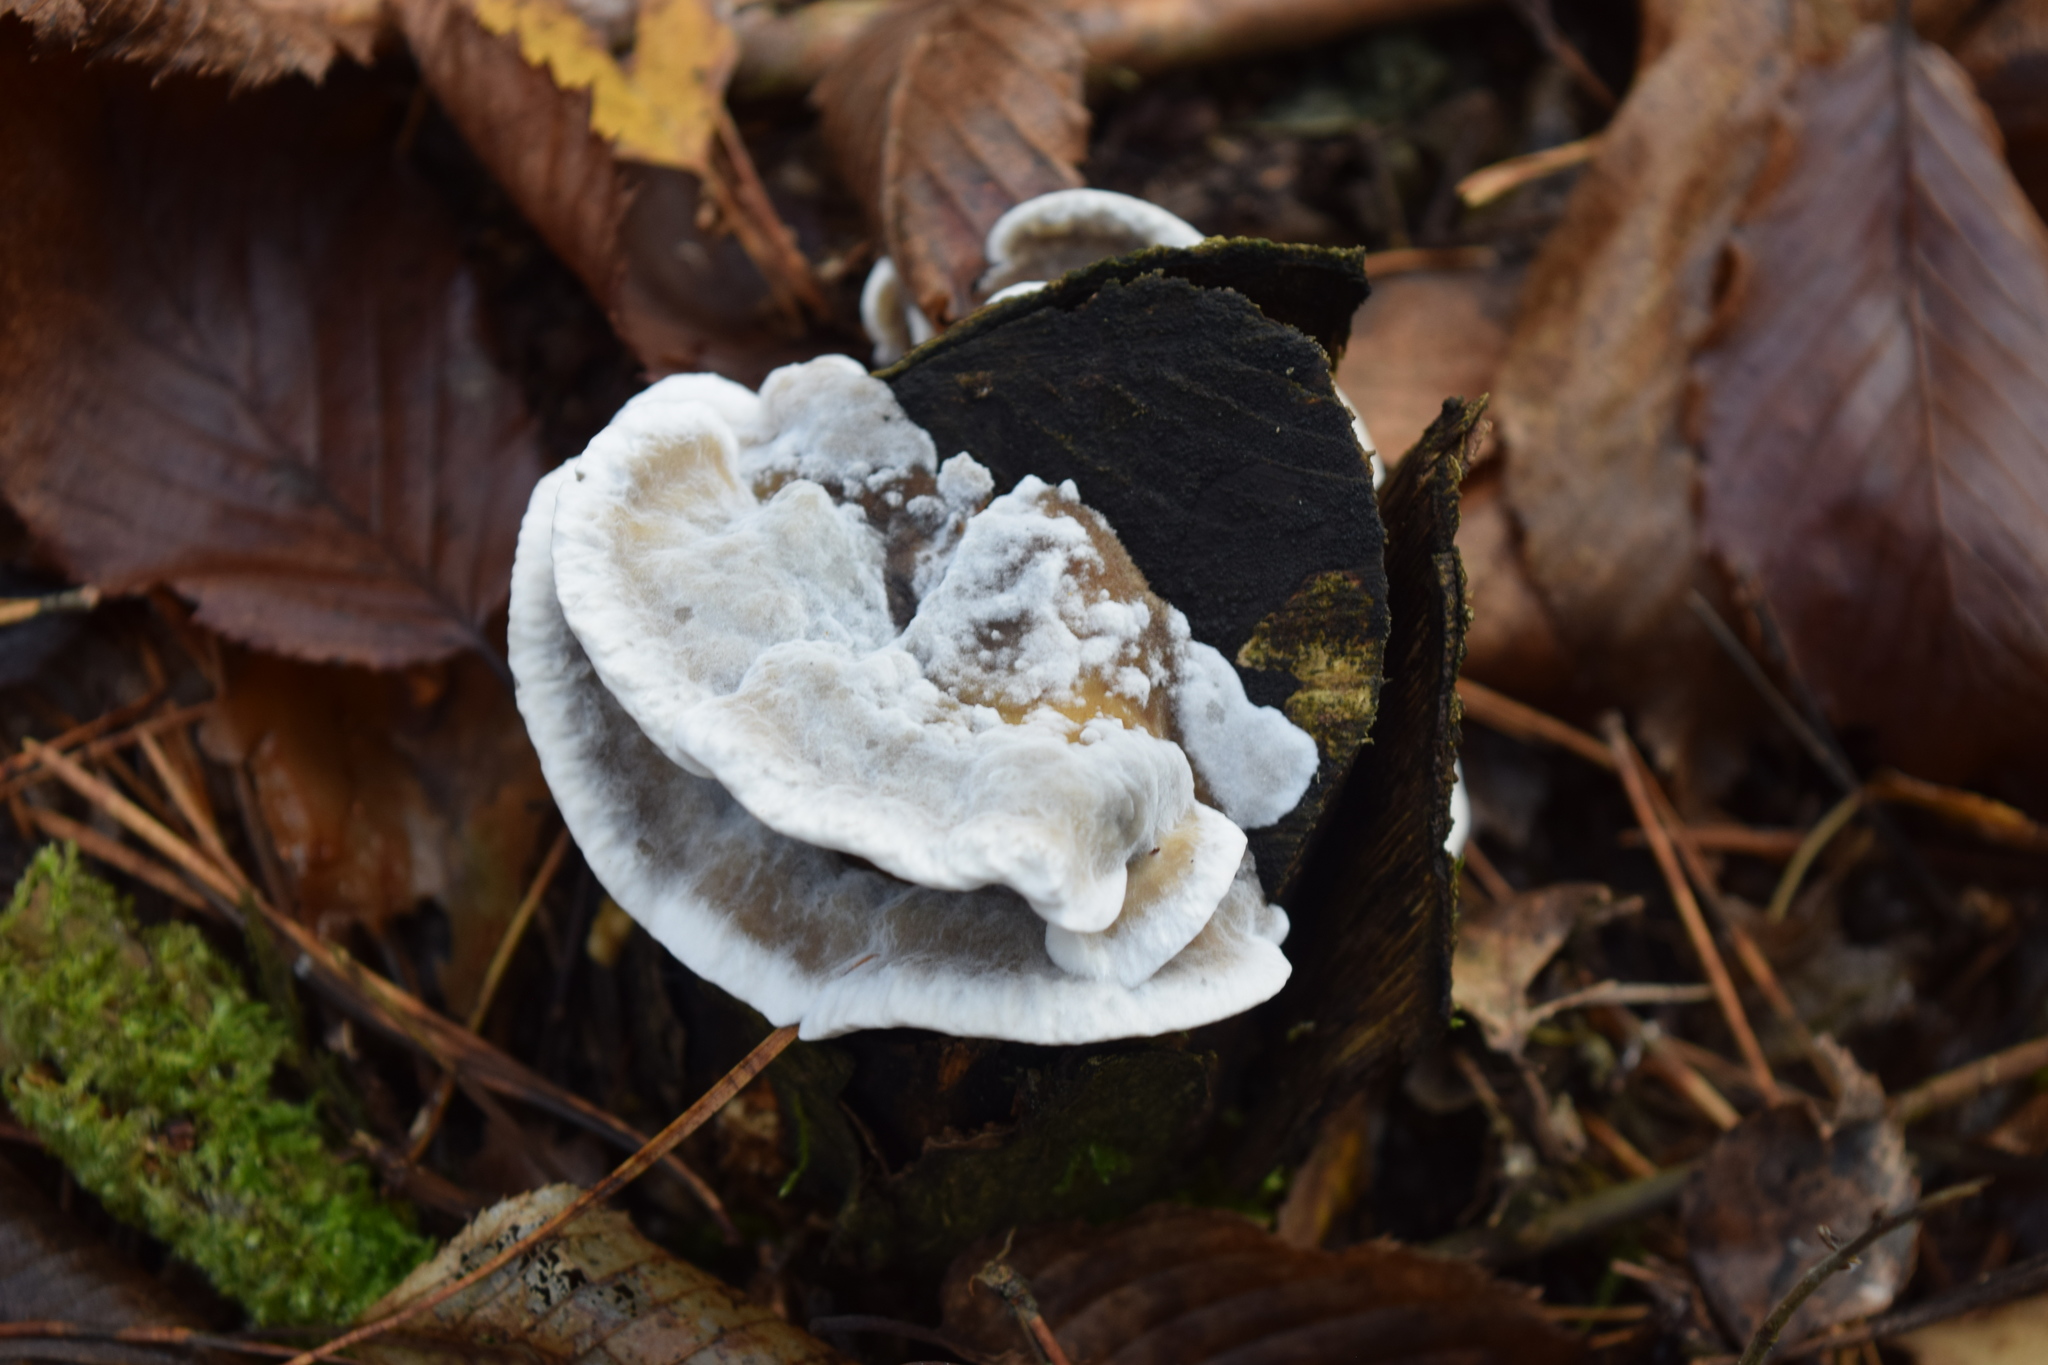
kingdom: Fungi
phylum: Basidiomycota
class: Agaricomycetes
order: Polyporales
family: Phanerochaetaceae
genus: Bjerkandera
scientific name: Bjerkandera adusta
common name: Smoky bracket
